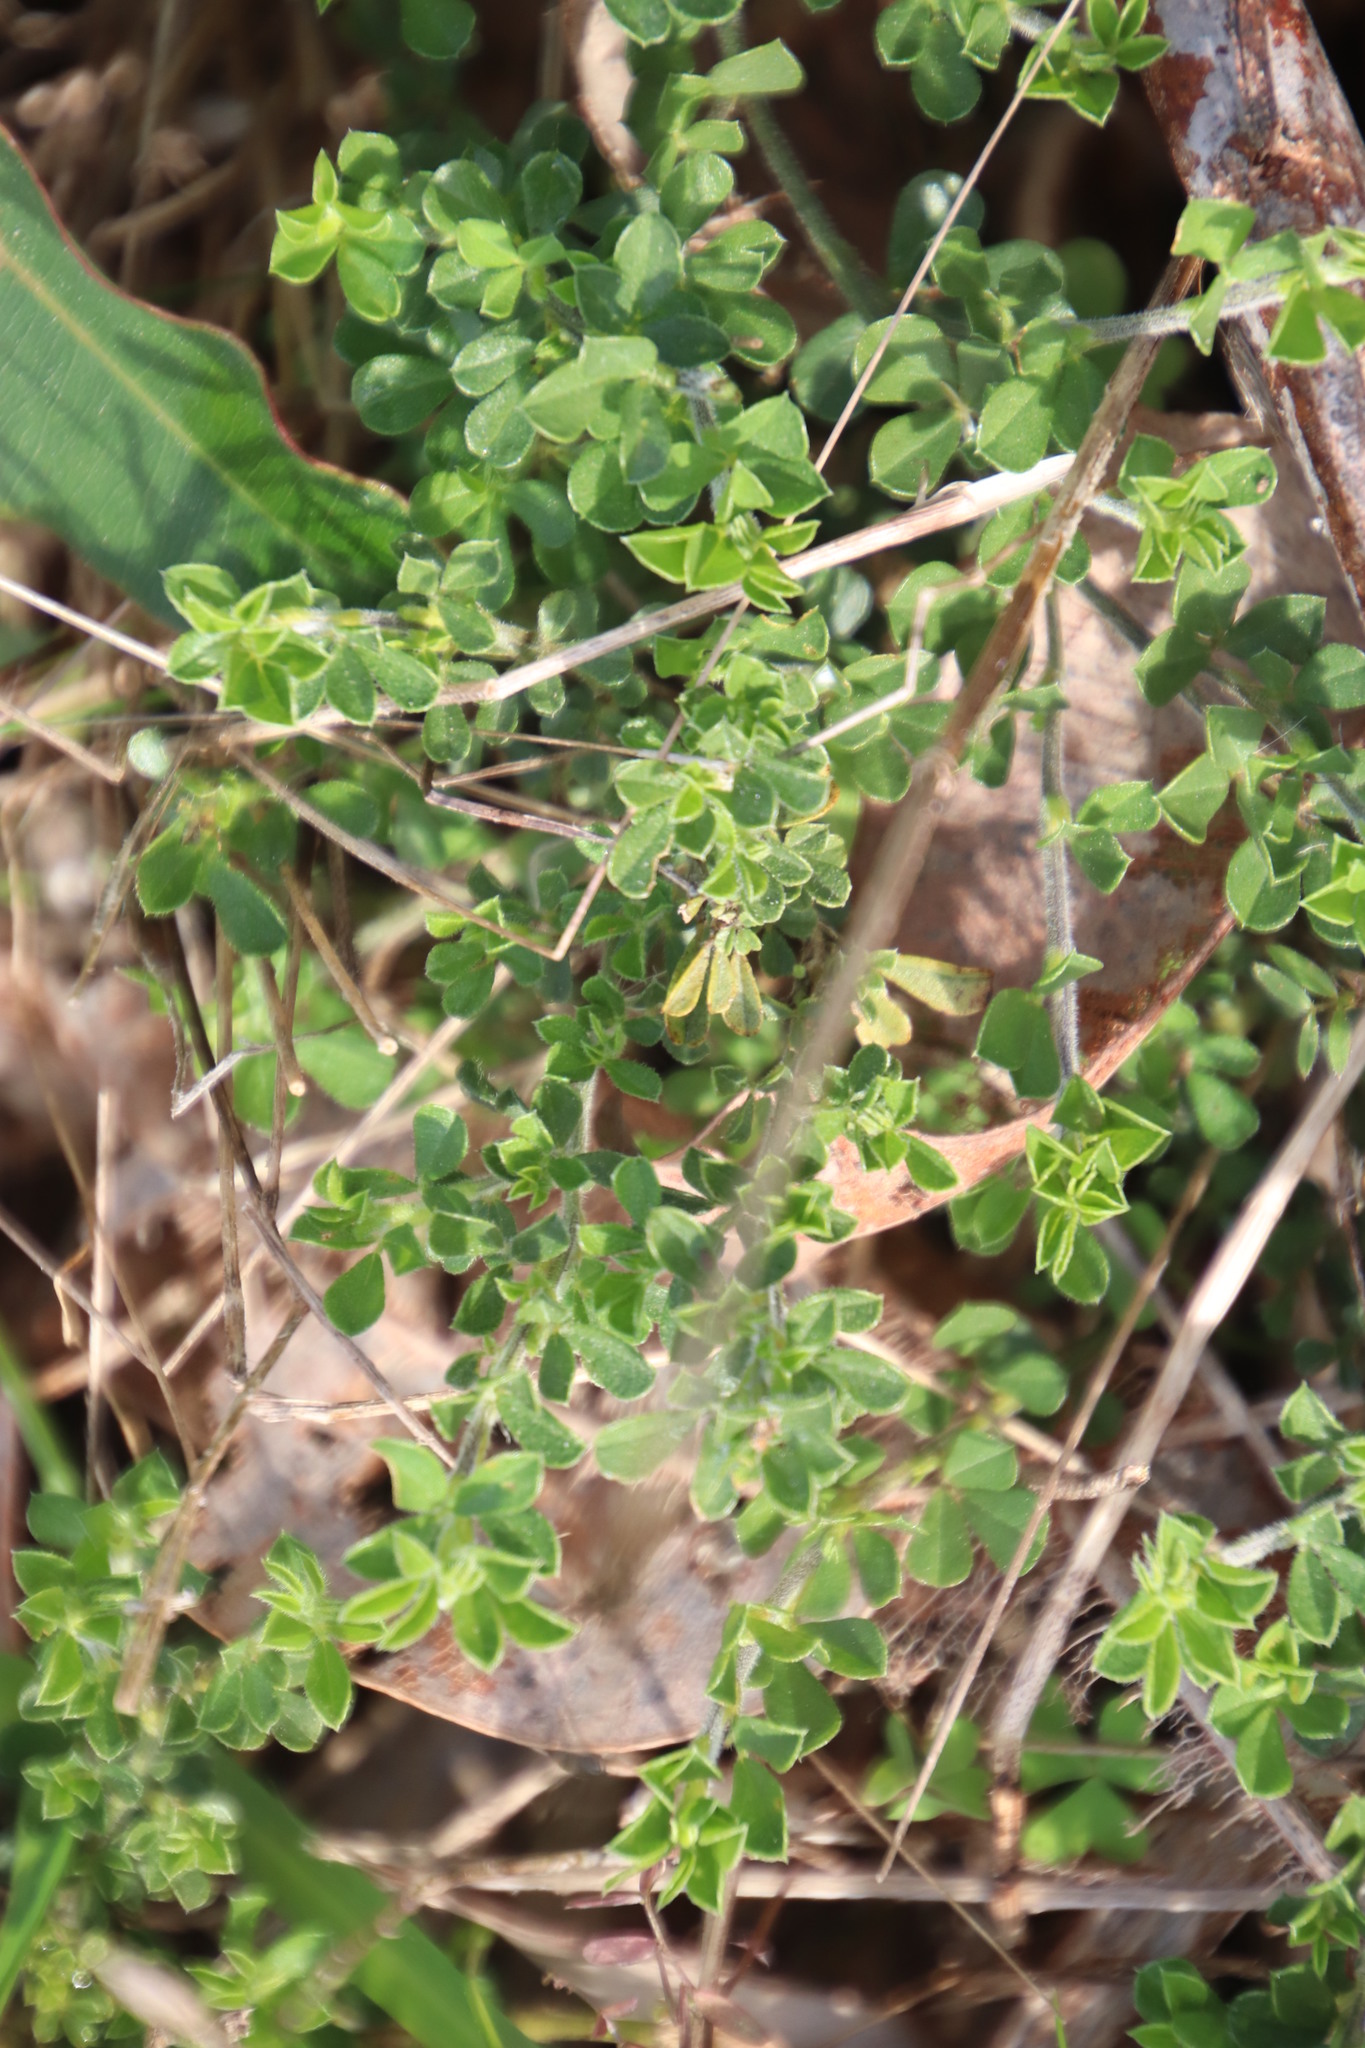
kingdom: Plantae
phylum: Tracheophyta
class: Magnoliopsida
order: Fabales
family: Fabaceae
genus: Psoralea
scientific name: Psoralea
